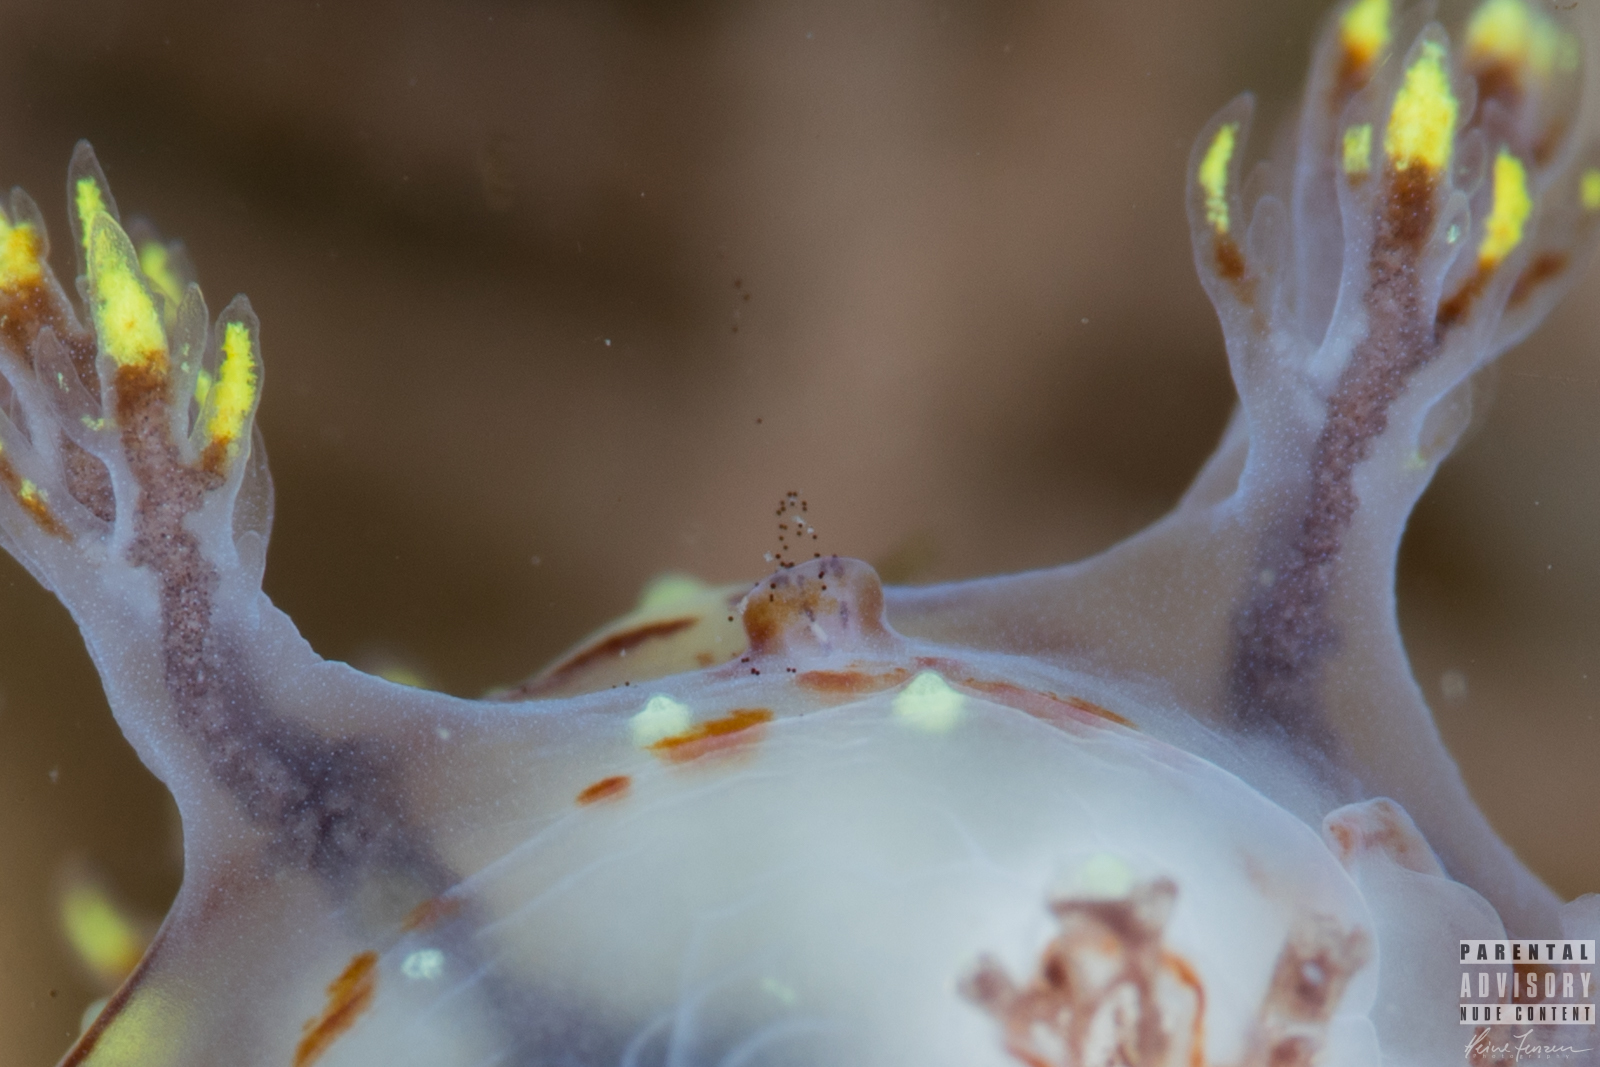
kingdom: Animalia
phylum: Mollusca
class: Gastropoda
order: Nudibranchia
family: Dendronotidae
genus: Dendronotus
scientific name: Dendronotus yrjargul
